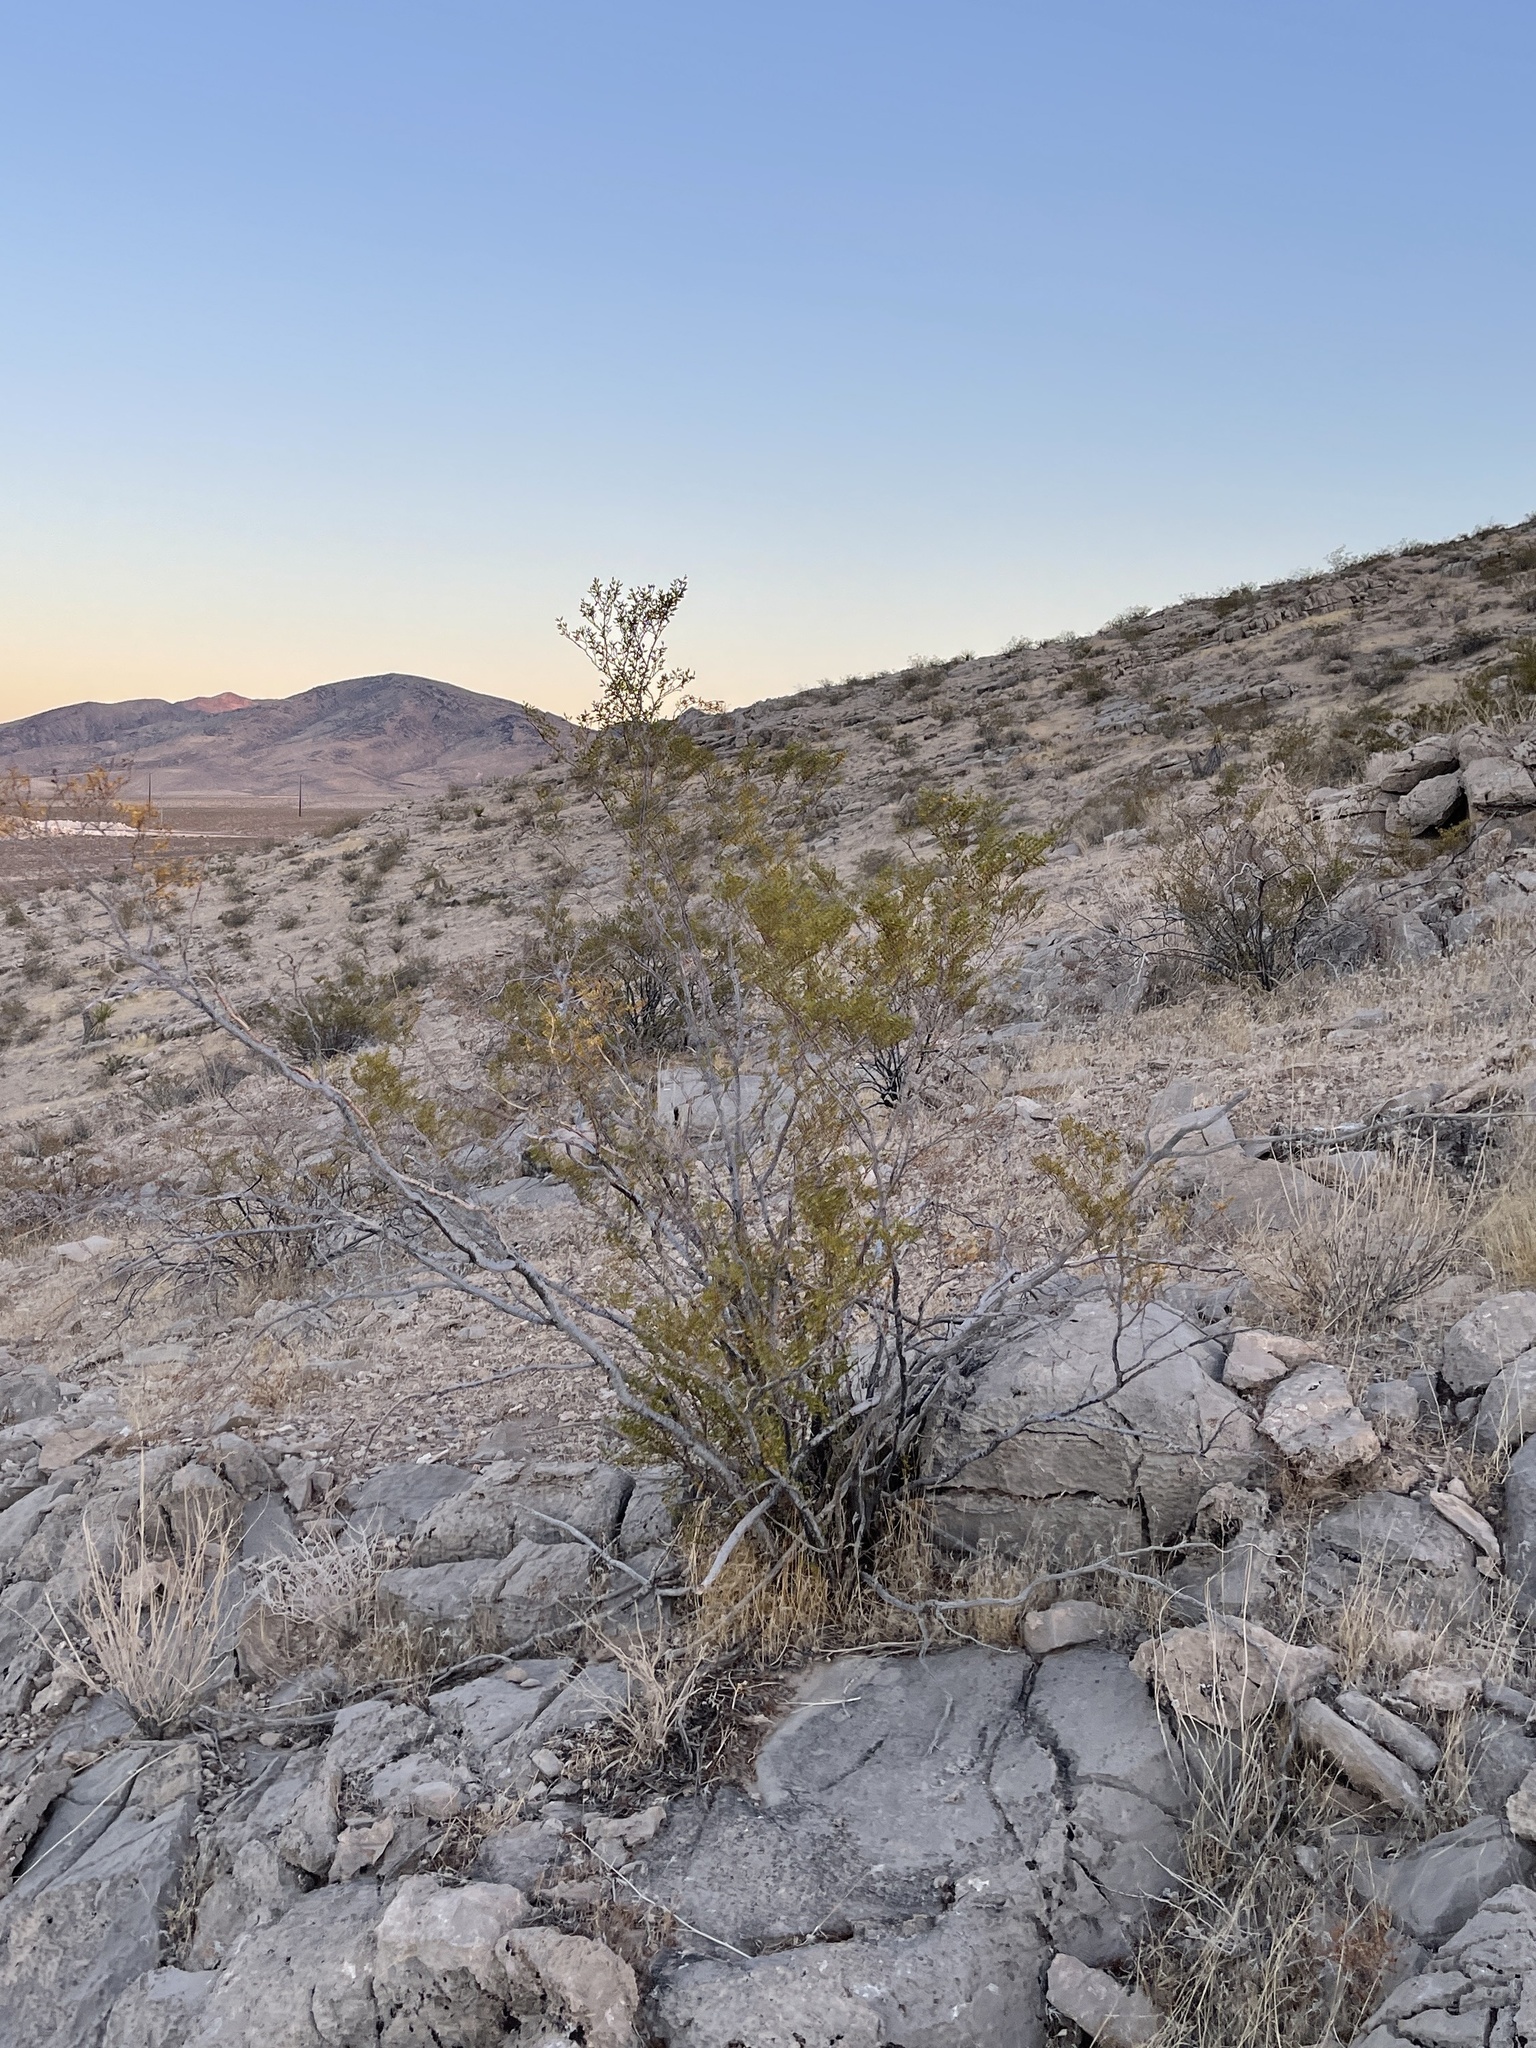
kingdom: Plantae
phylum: Tracheophyta
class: Magnoliopsida
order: Zygophyllales
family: Zygophyllaceae
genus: Larrea
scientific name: Larrea tridentata
